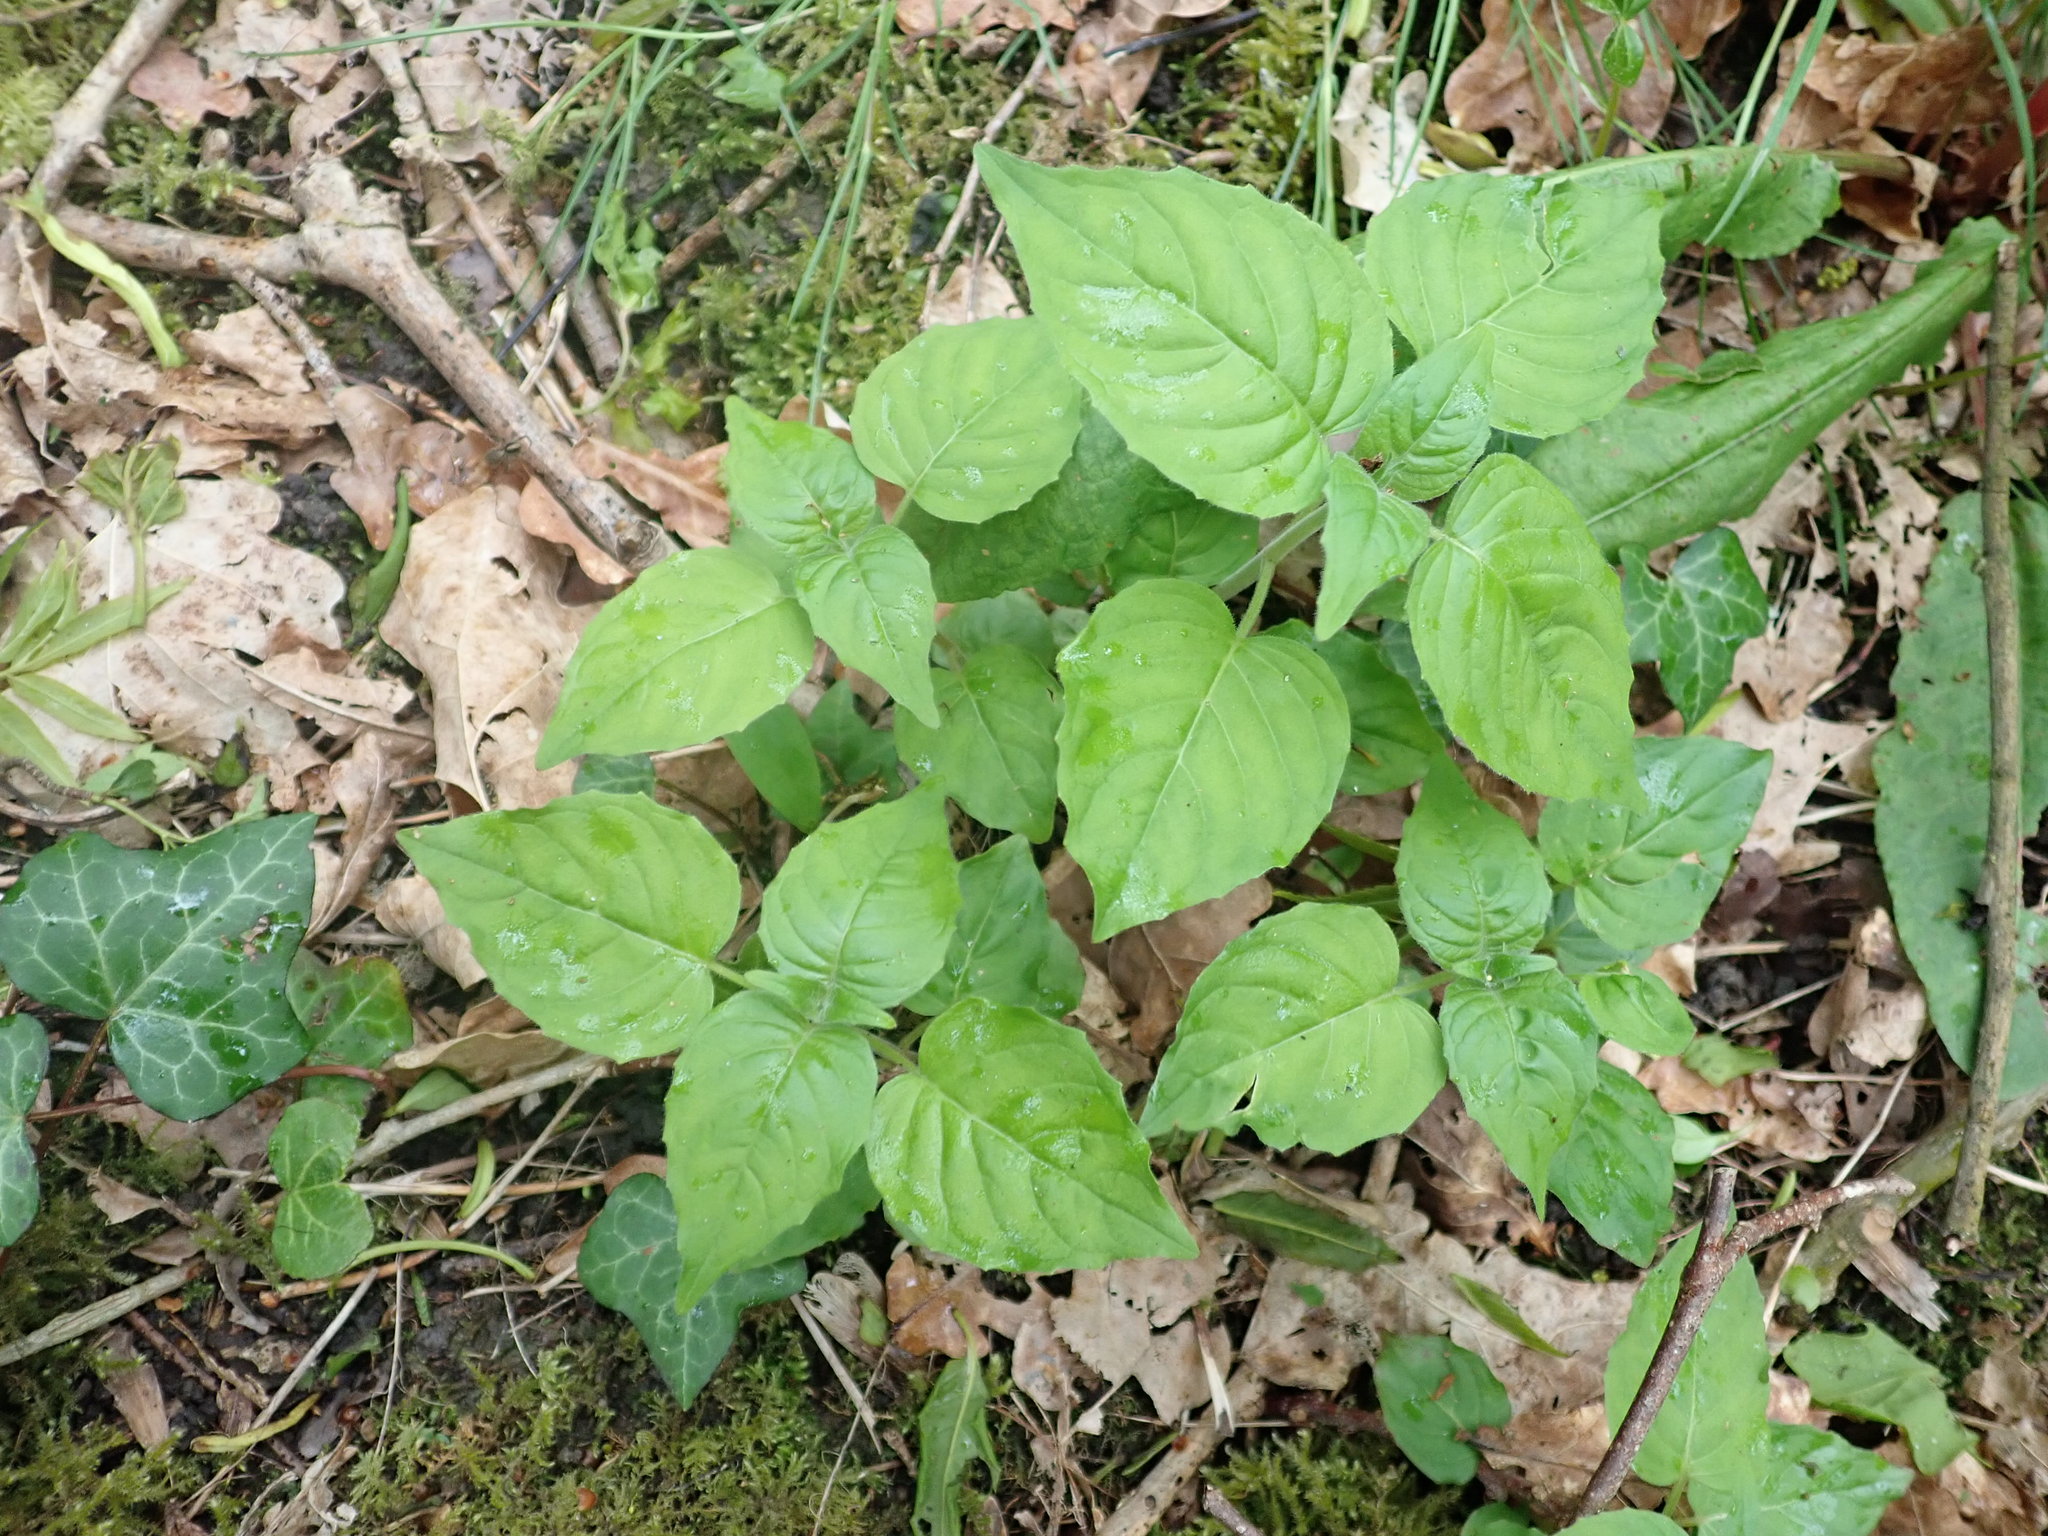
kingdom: Plantae
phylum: Tracheophyta
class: Magnoliopsida
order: Myrtales
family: Onagraceae
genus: Circaea
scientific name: Circaea lutetiana
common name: Enchanter's-nightshade
